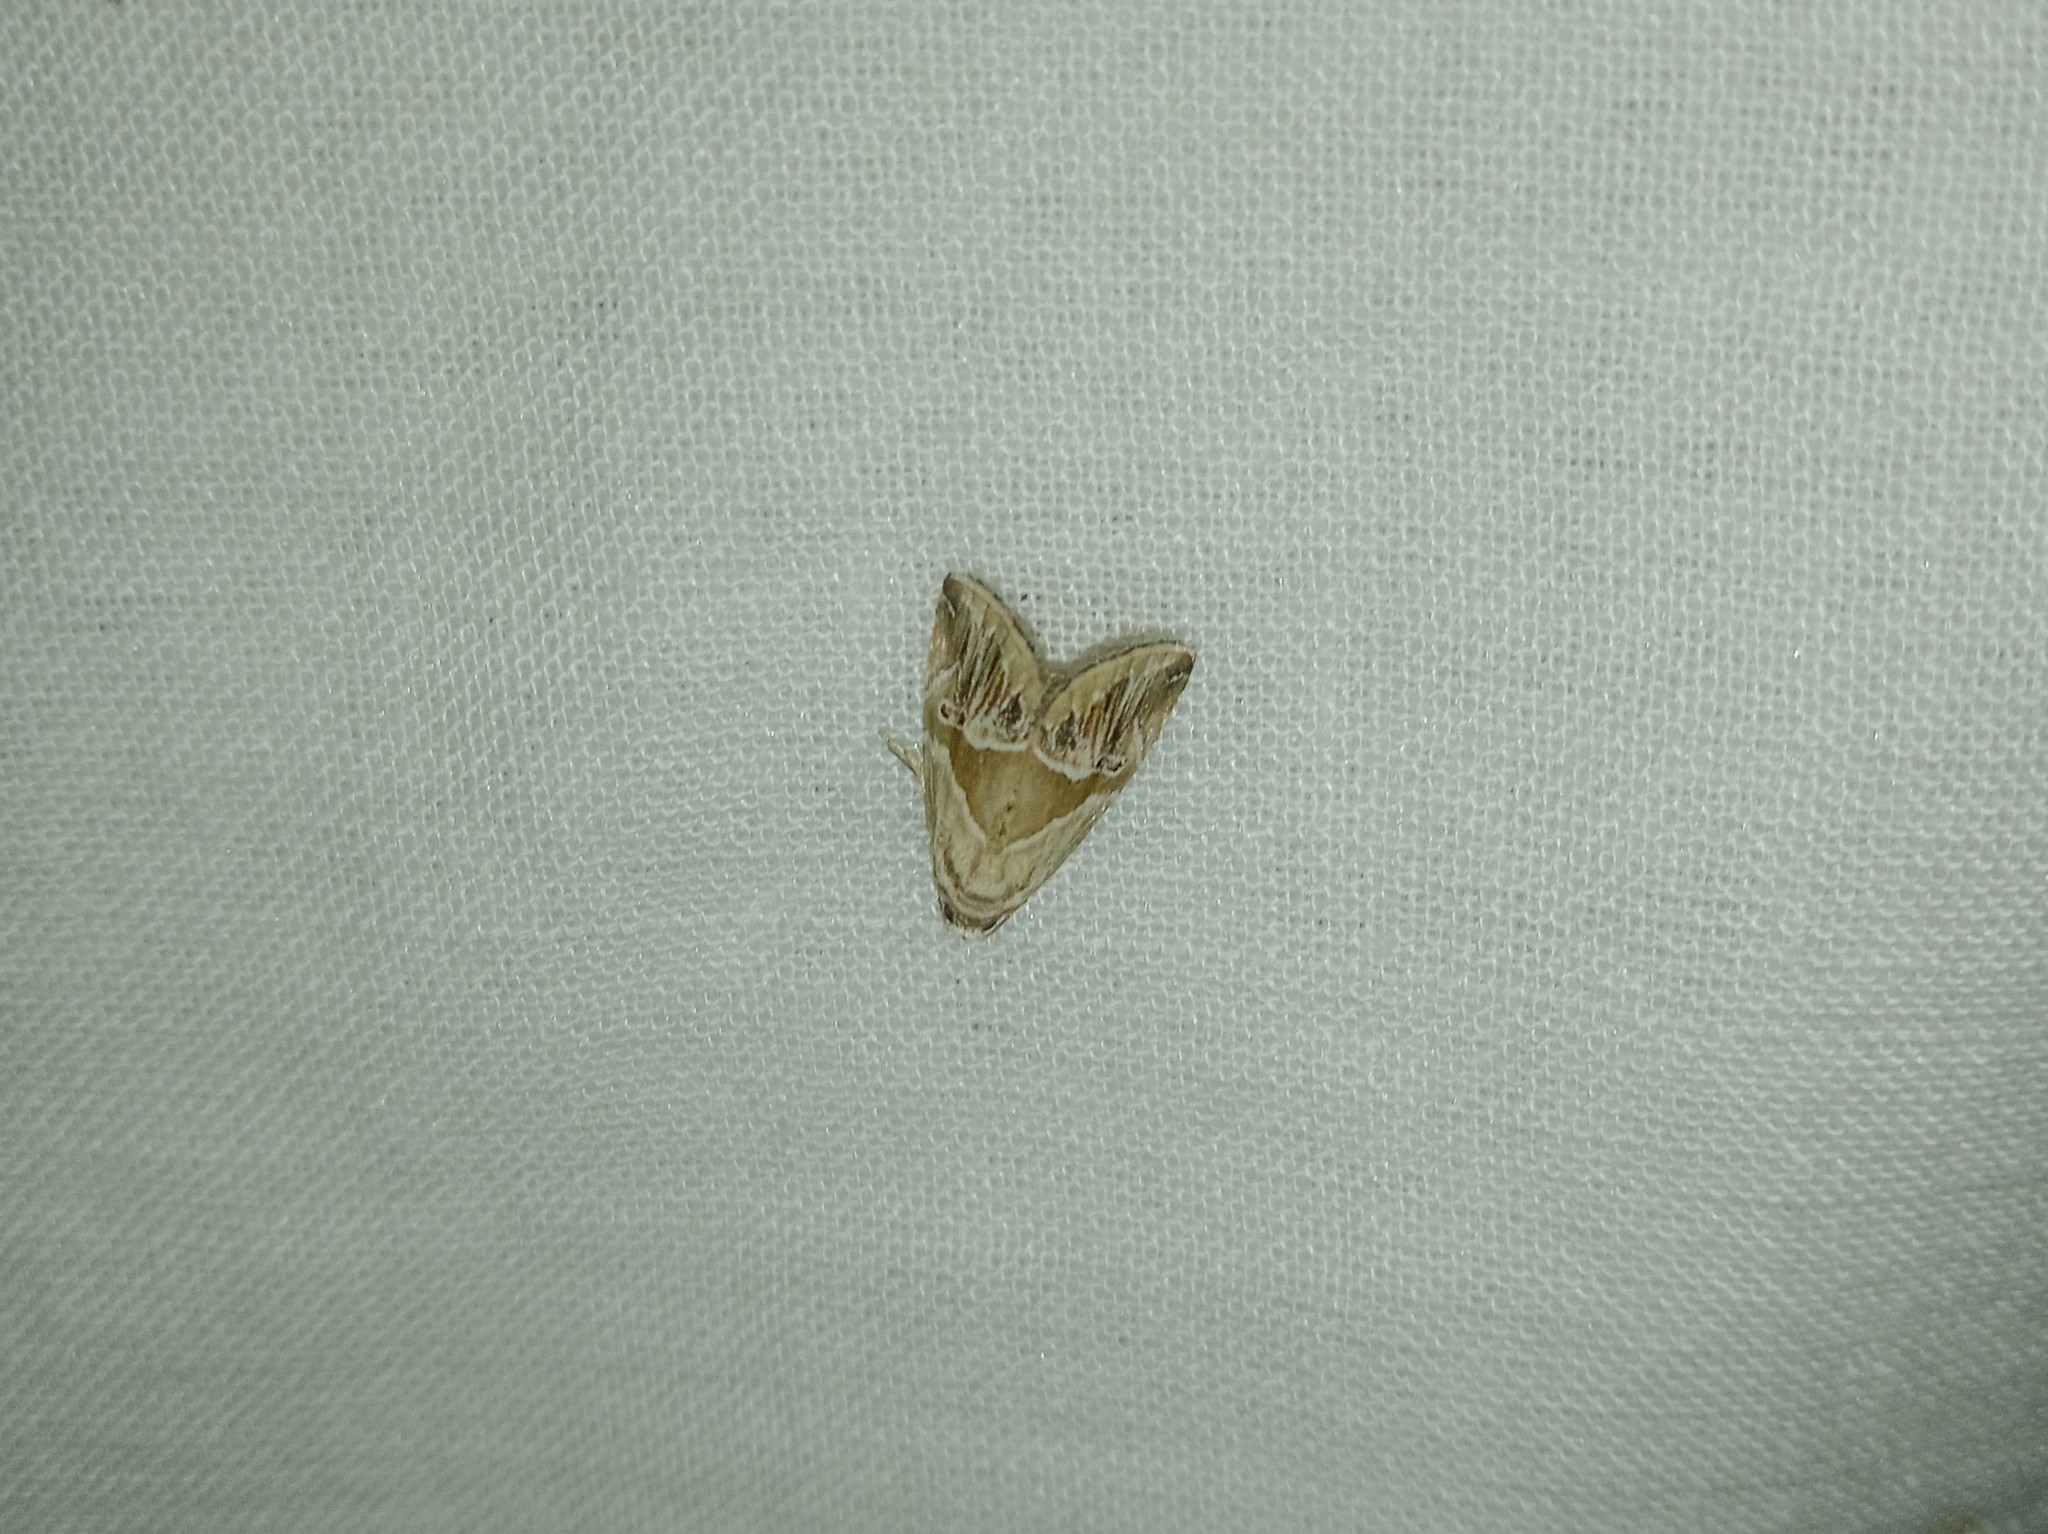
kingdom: Animalia
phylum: Arthropoda
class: Insecta
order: Lepidoptera
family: Noctuidae
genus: Maliattha
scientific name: Maliattha separata
